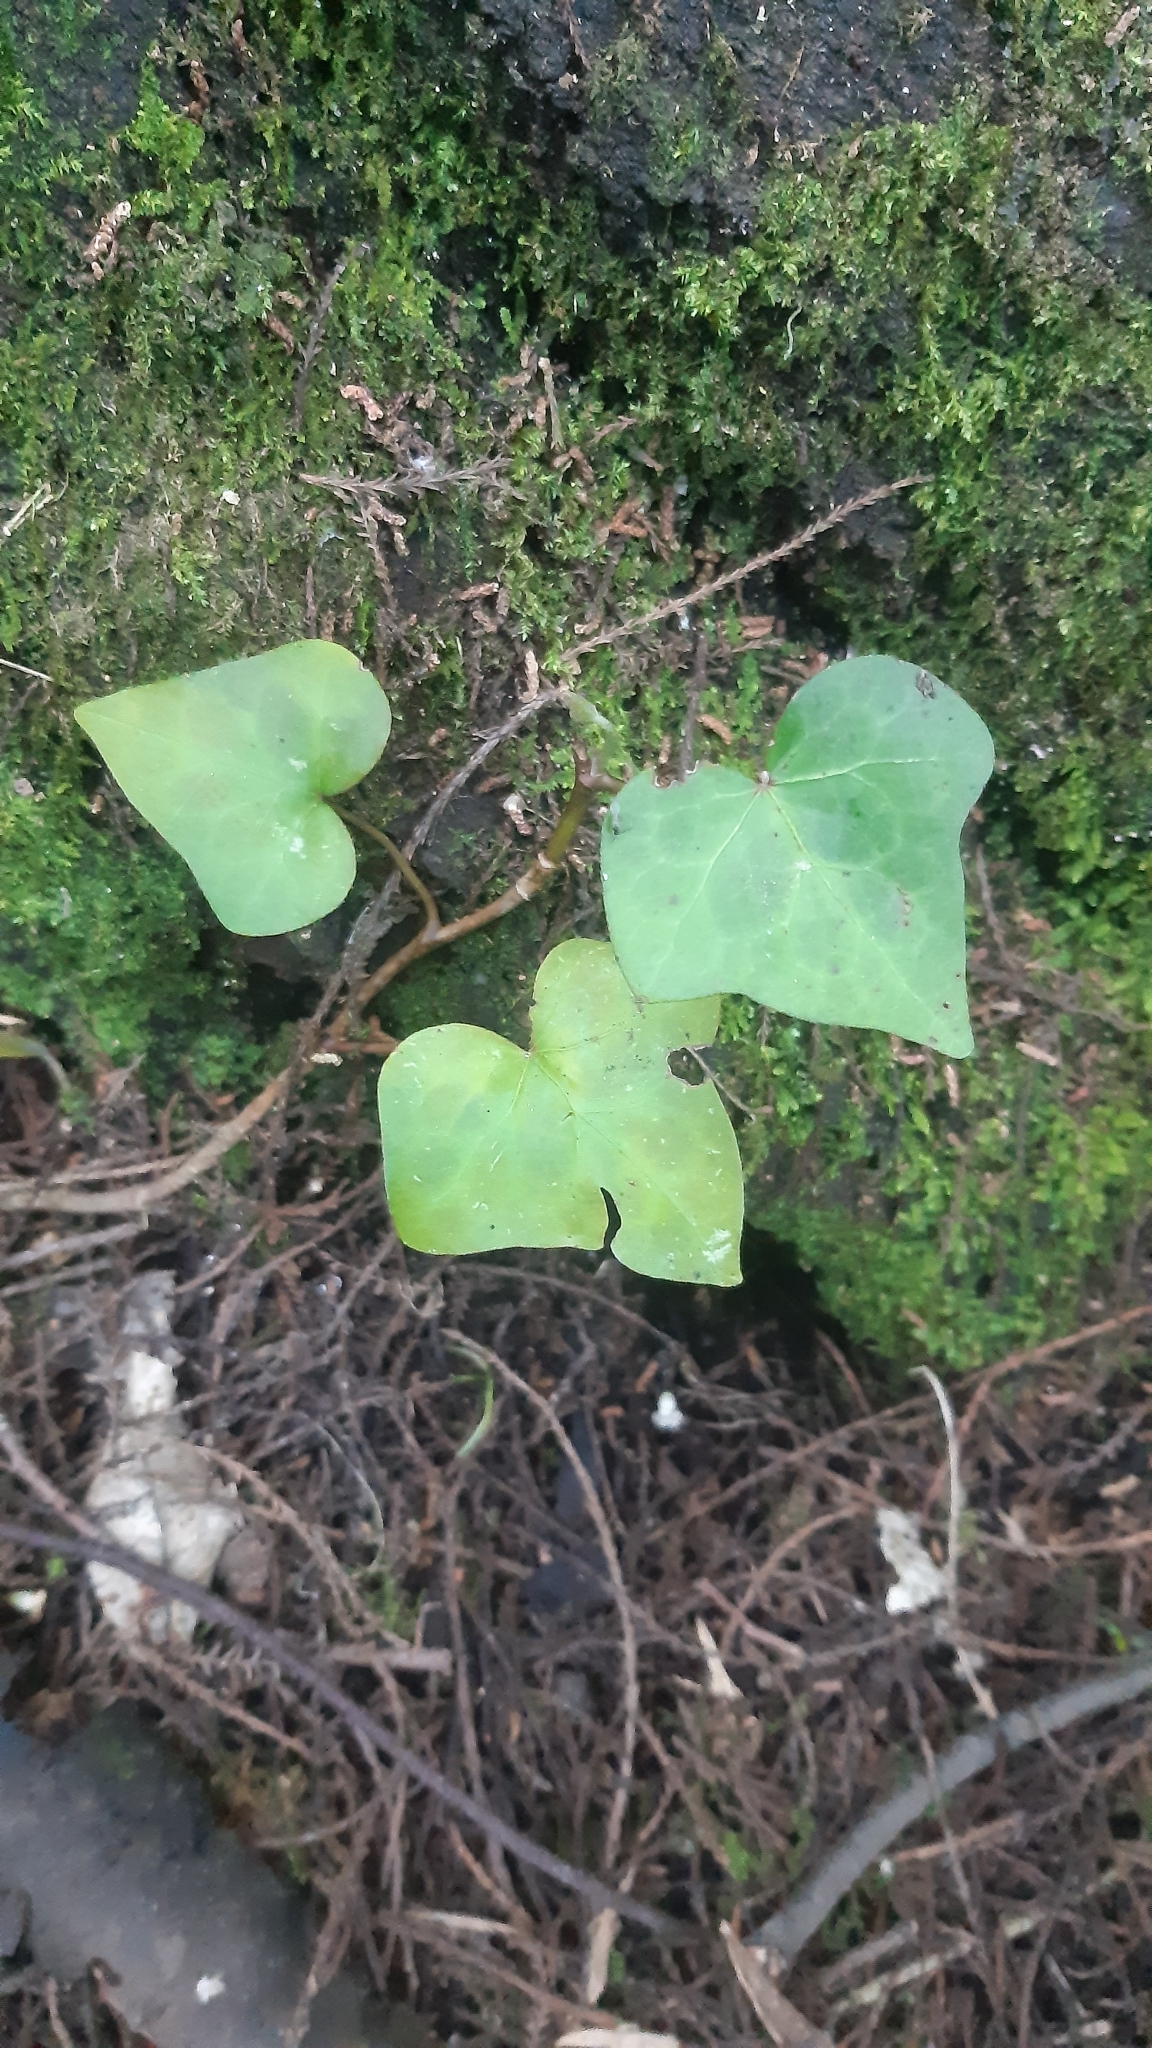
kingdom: Plantae
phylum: Tracheophyta
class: Magnoliopsida
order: Apiales
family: Araliaceae
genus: Hedera
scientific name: Hedera canariensis
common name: Madeira ivy
